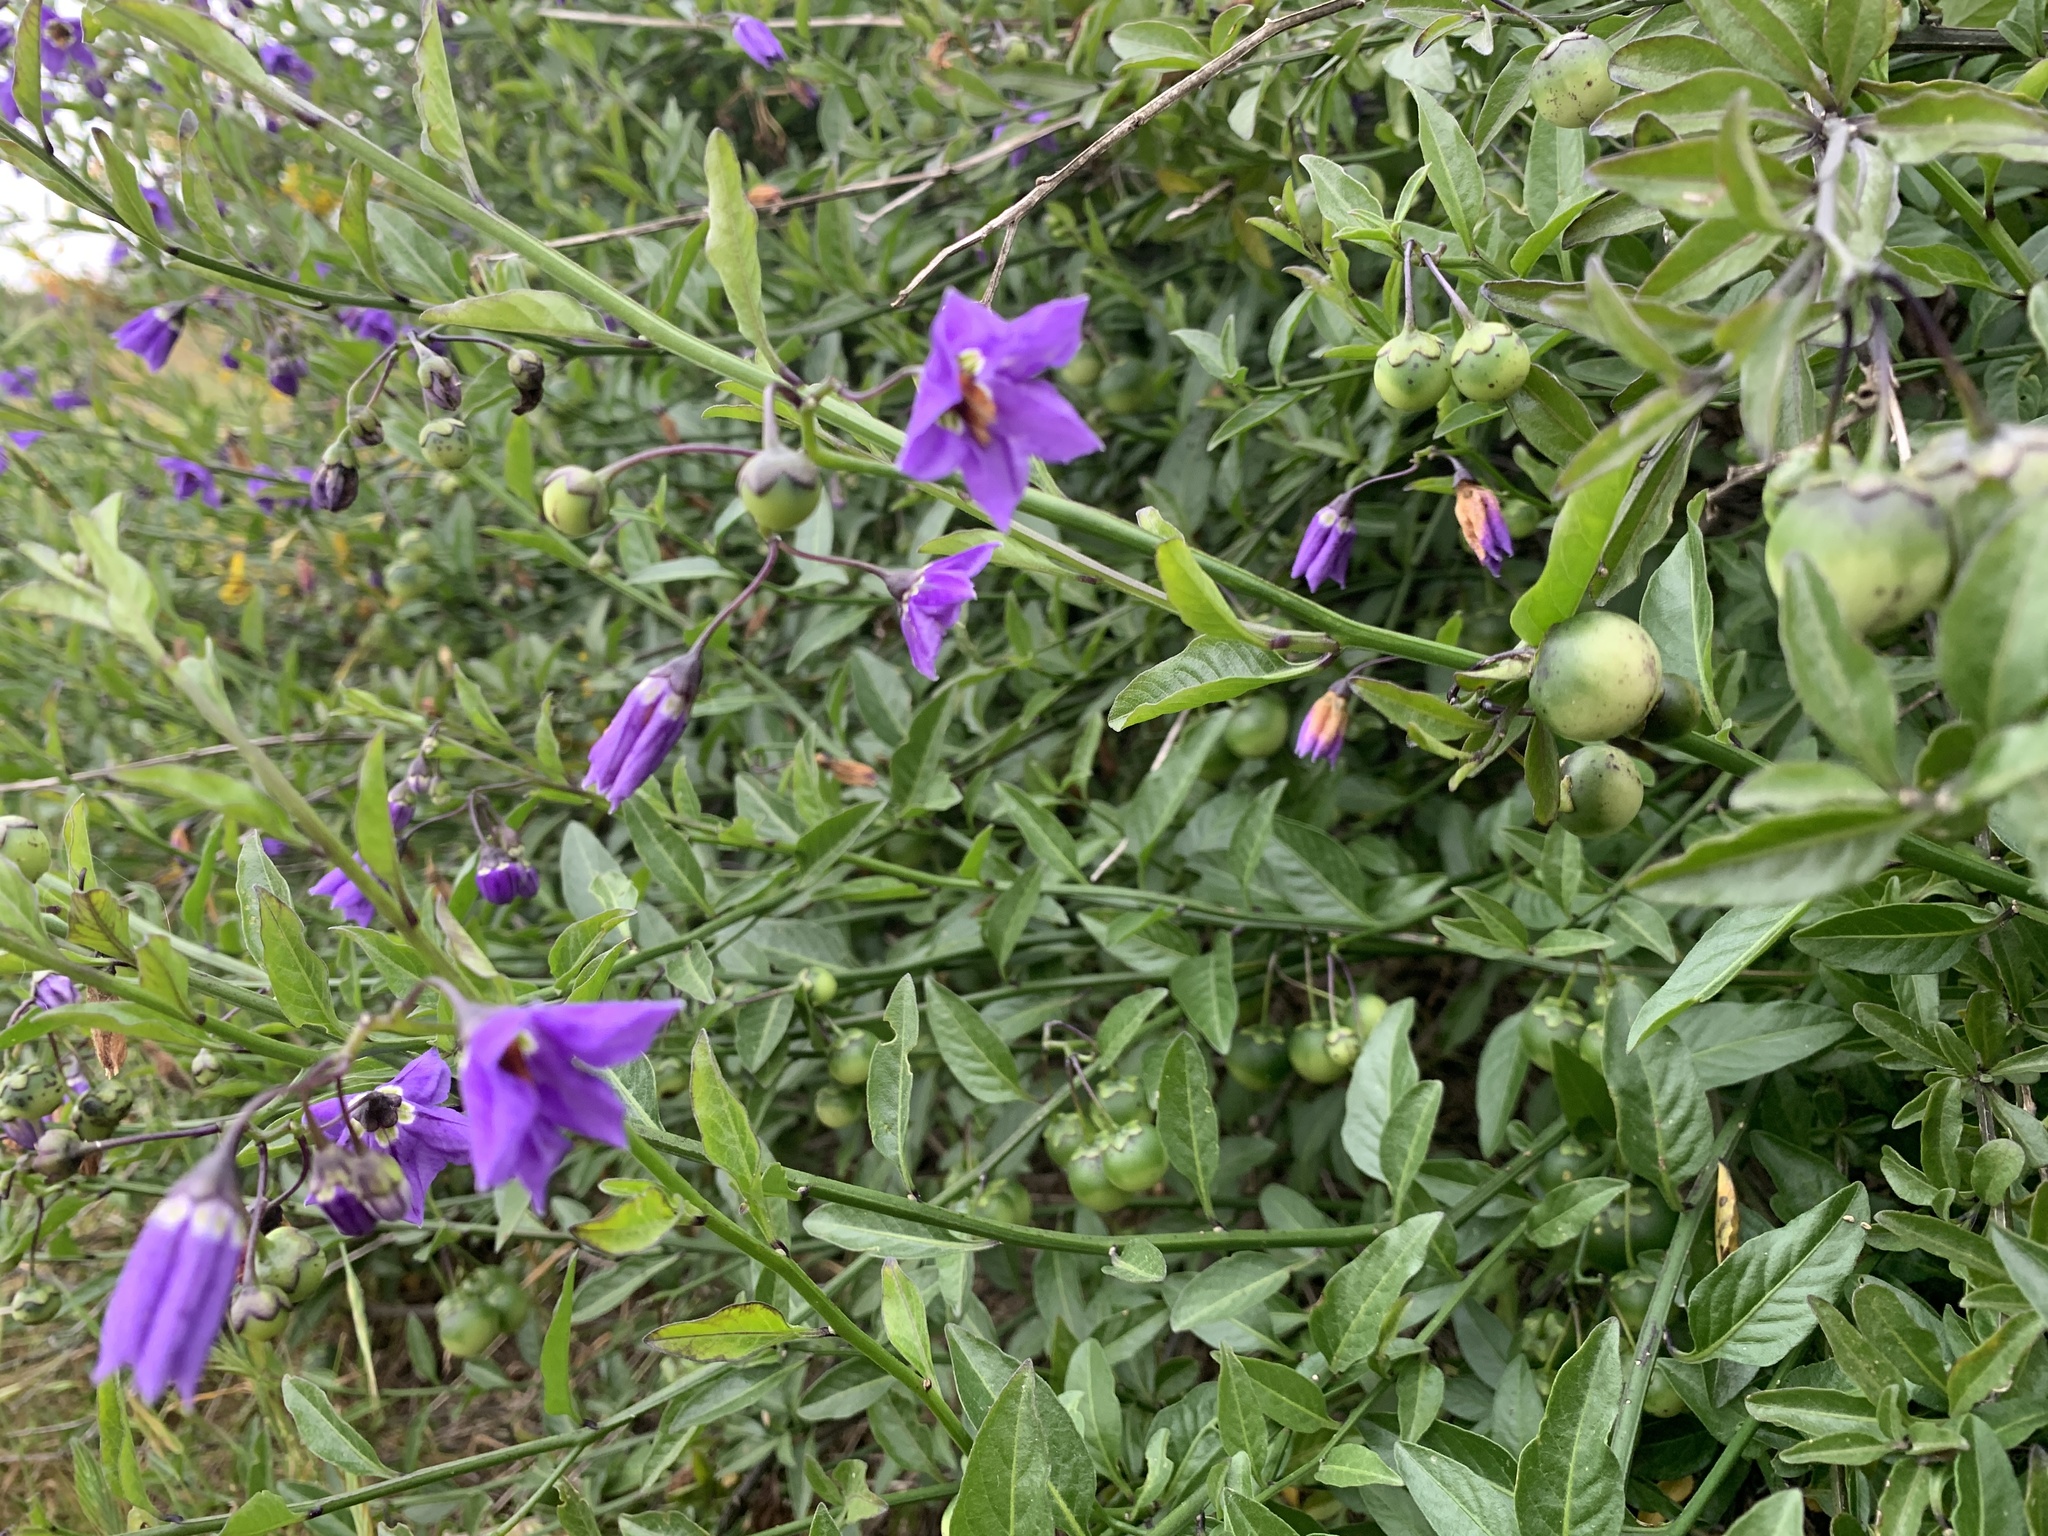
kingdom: Plantae
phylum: Tracheophyta
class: Magnoliopsida
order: Solanales
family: Solanaceae
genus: Solanum
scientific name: Solanum umbelliferum
